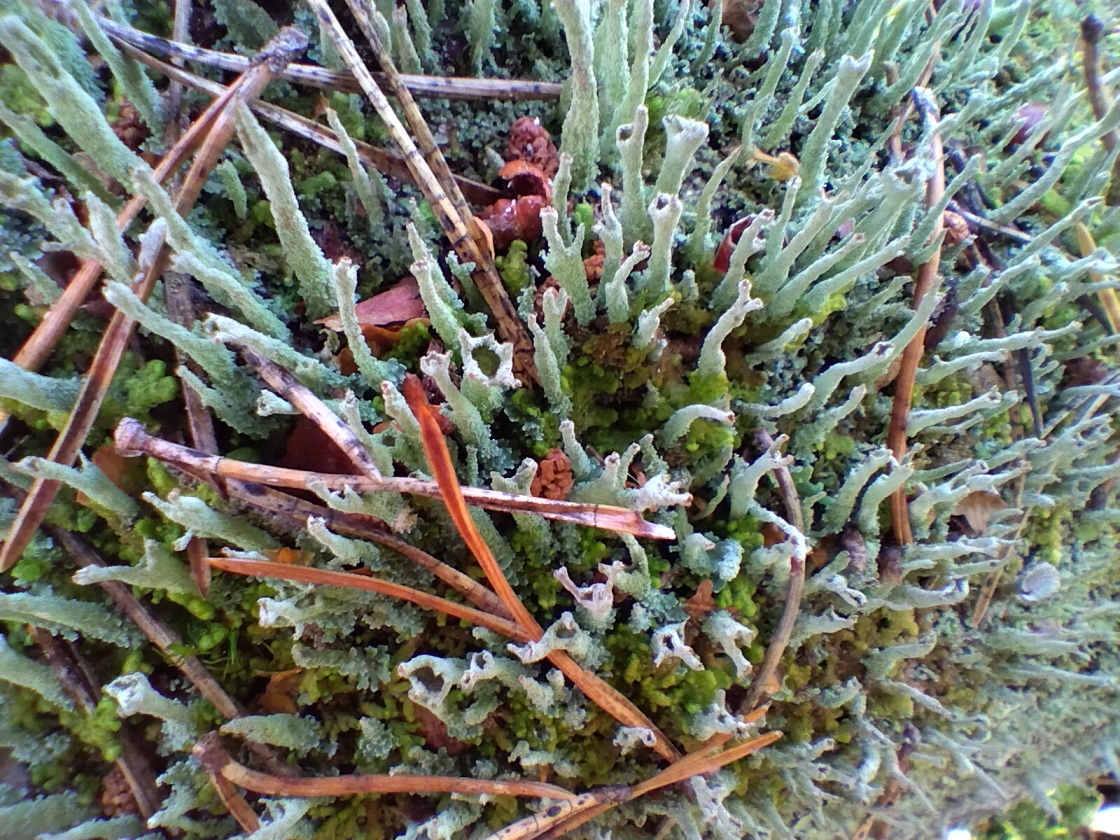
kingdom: Fungi
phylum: Ascomycota
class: Lecanoromycetes
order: Lecanorales
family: Cladoniaceae
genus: Cladonia
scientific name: Cladonia cenotea
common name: Powdered funnel lichen
